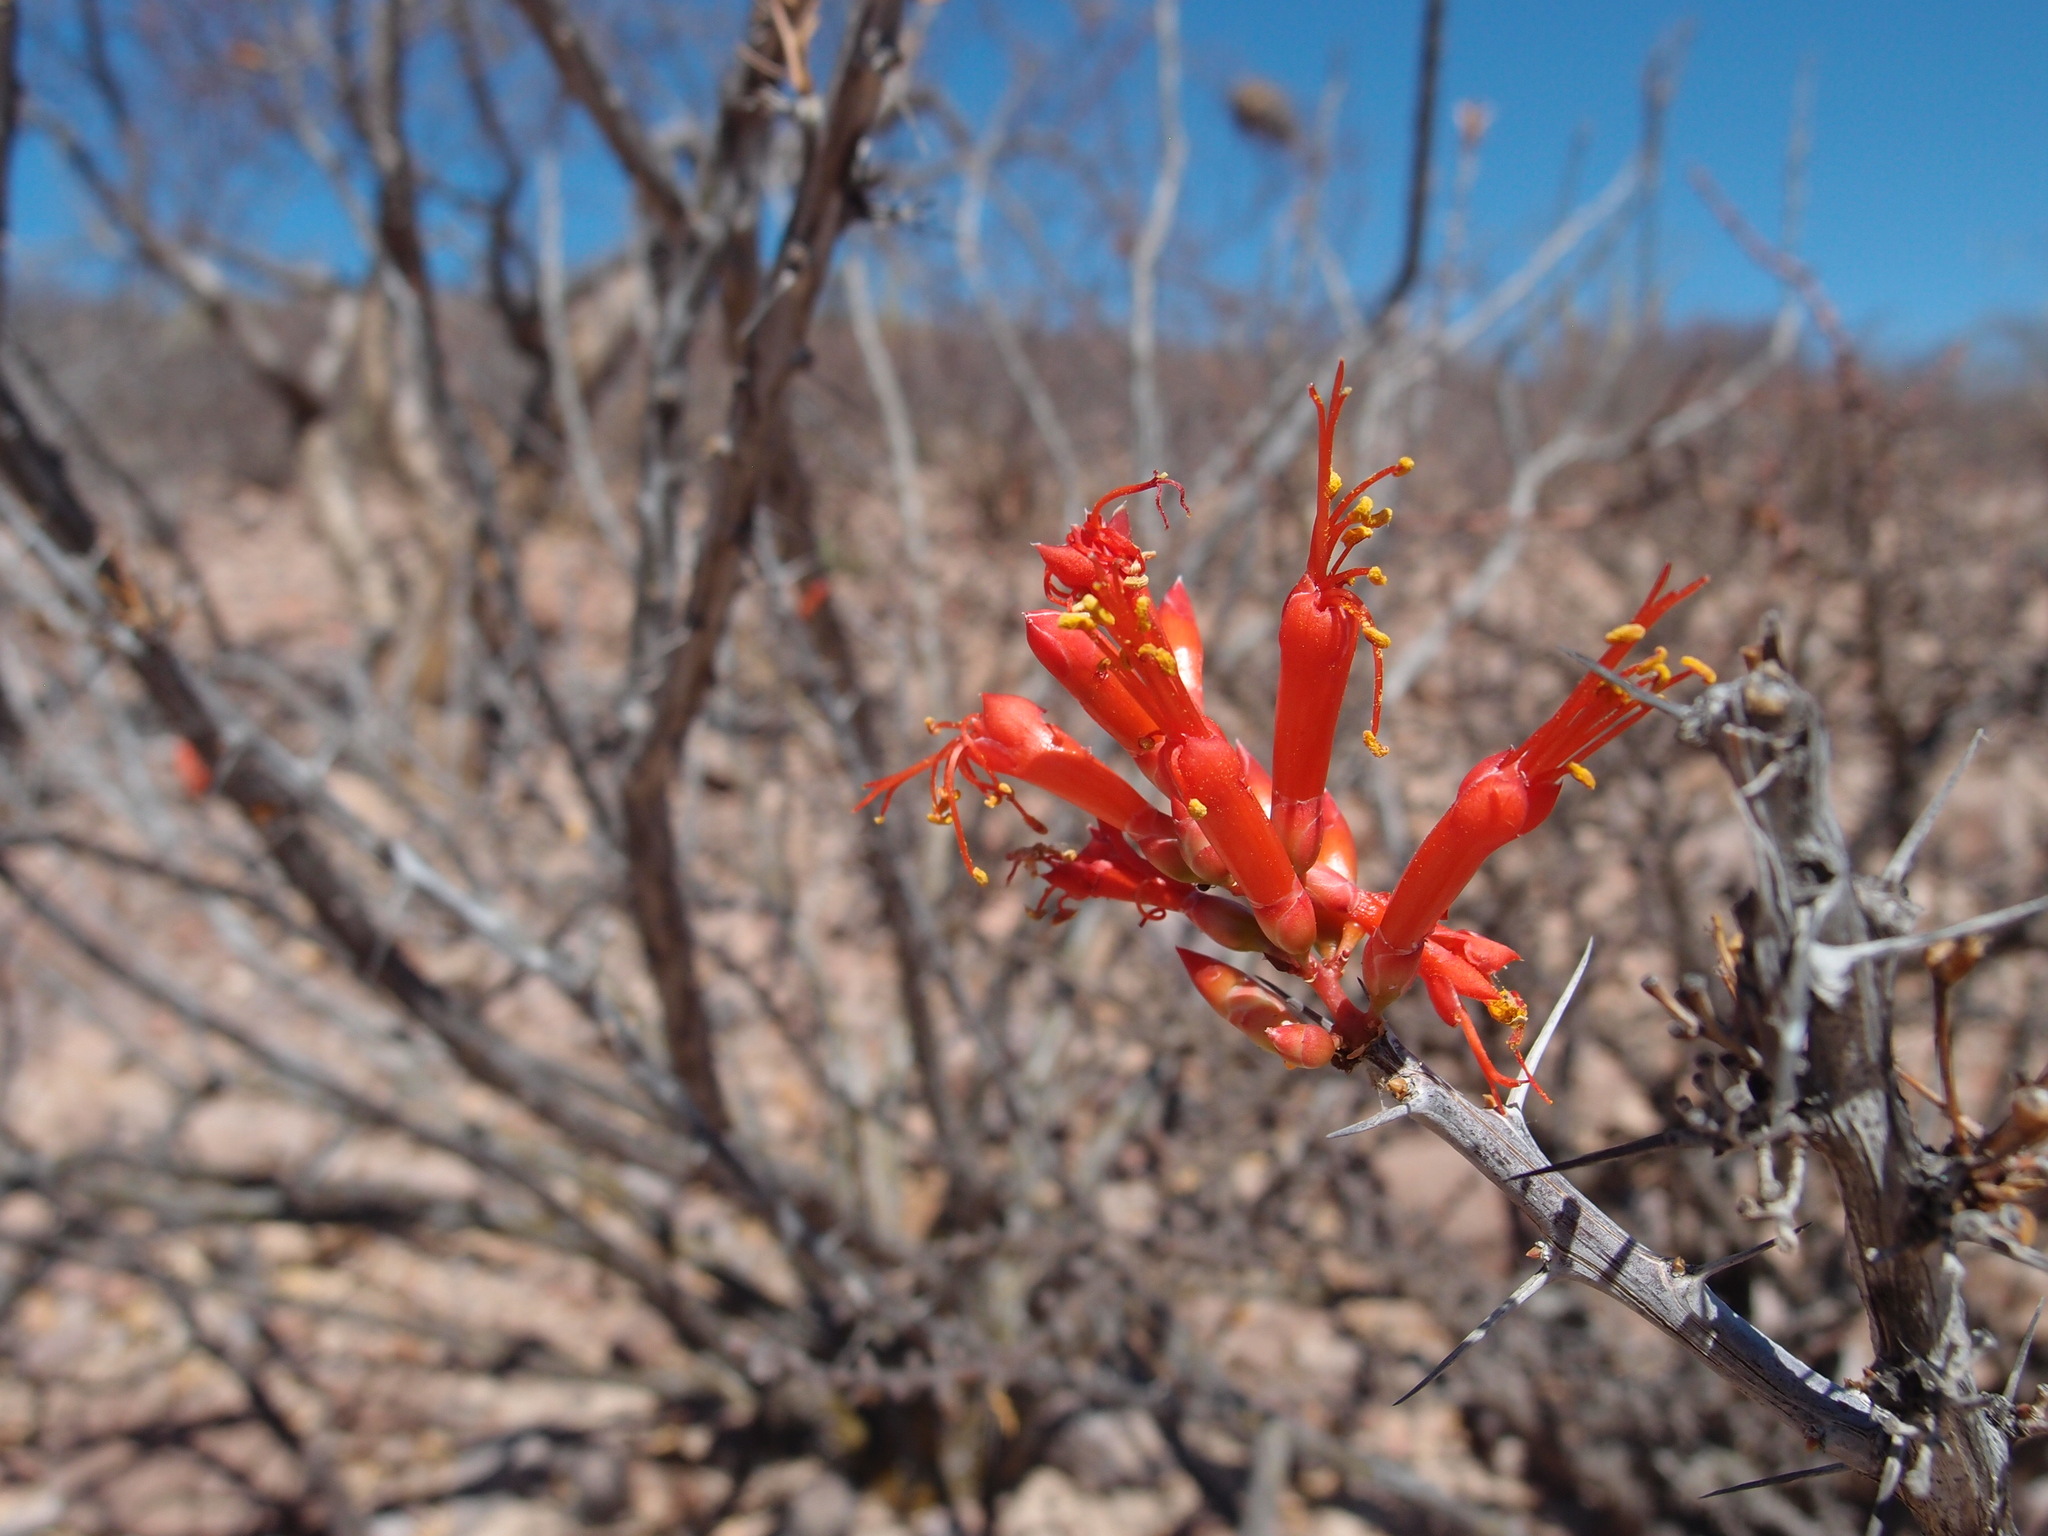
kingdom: Plantae
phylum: Tracheophyta
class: Magnoliopsida
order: Ericales
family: Fouquieriaceae
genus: Fouquieria
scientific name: Fouquieria diguetii
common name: Adam's tree
